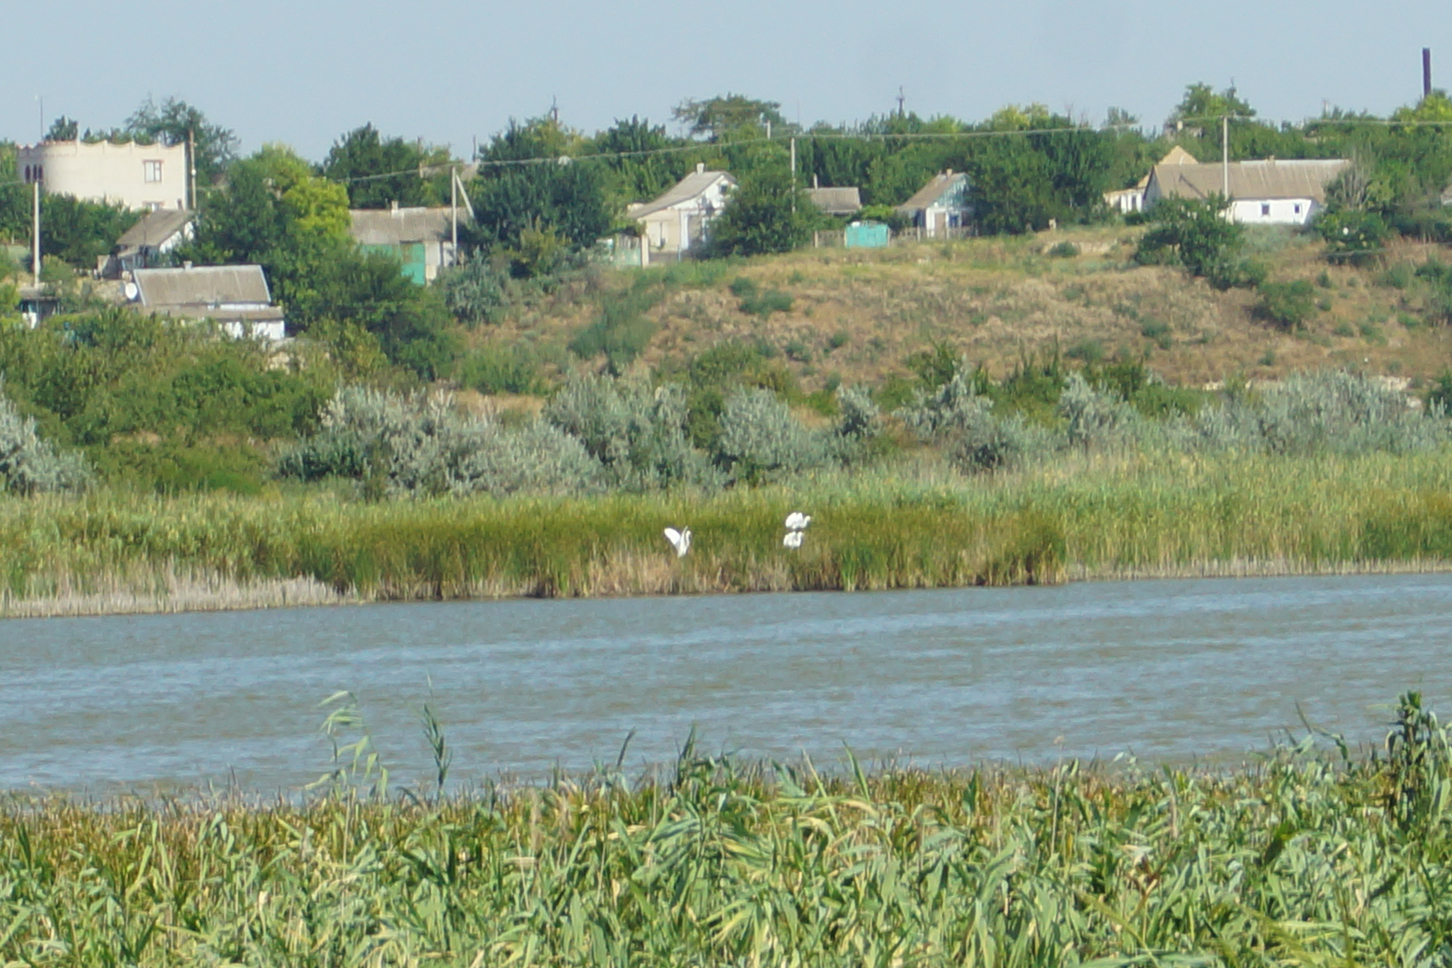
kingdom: Animalia
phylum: Chordata
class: Aves
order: Pelecaniformes
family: Ardeidae
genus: Ardea
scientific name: Ardea alba
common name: Great egret
